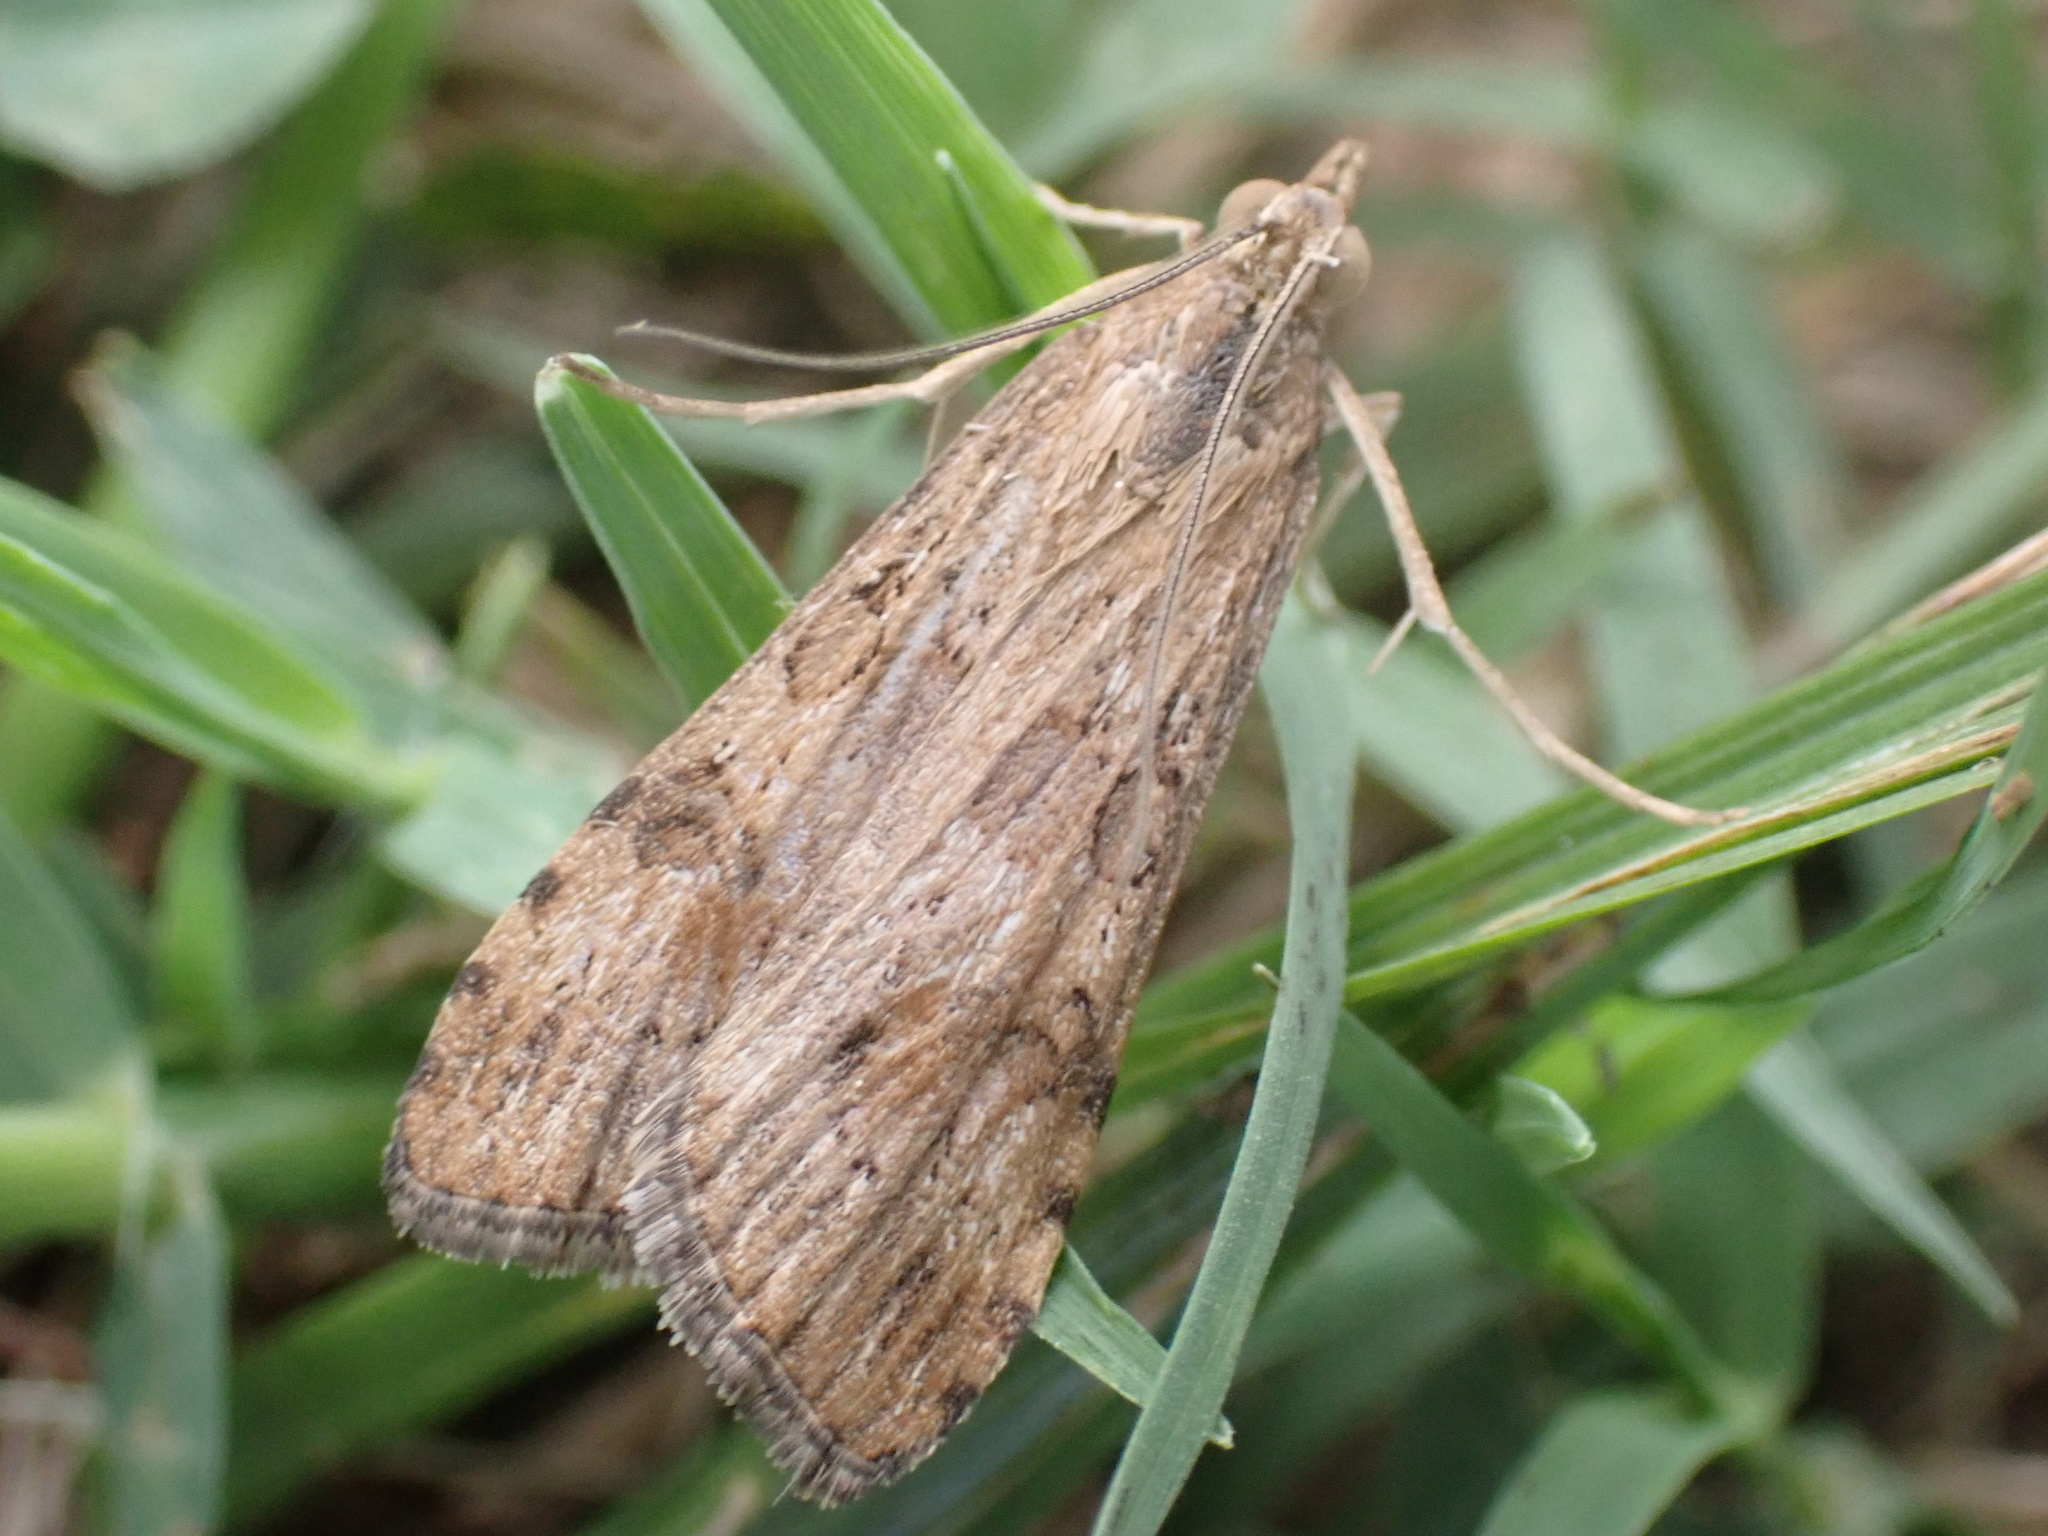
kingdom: Animalia
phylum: Arthropoda
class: Insecta
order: Lepidoptera
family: Crambidae
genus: Nomophila
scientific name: Nomophila nearctica
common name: American rush veneer
